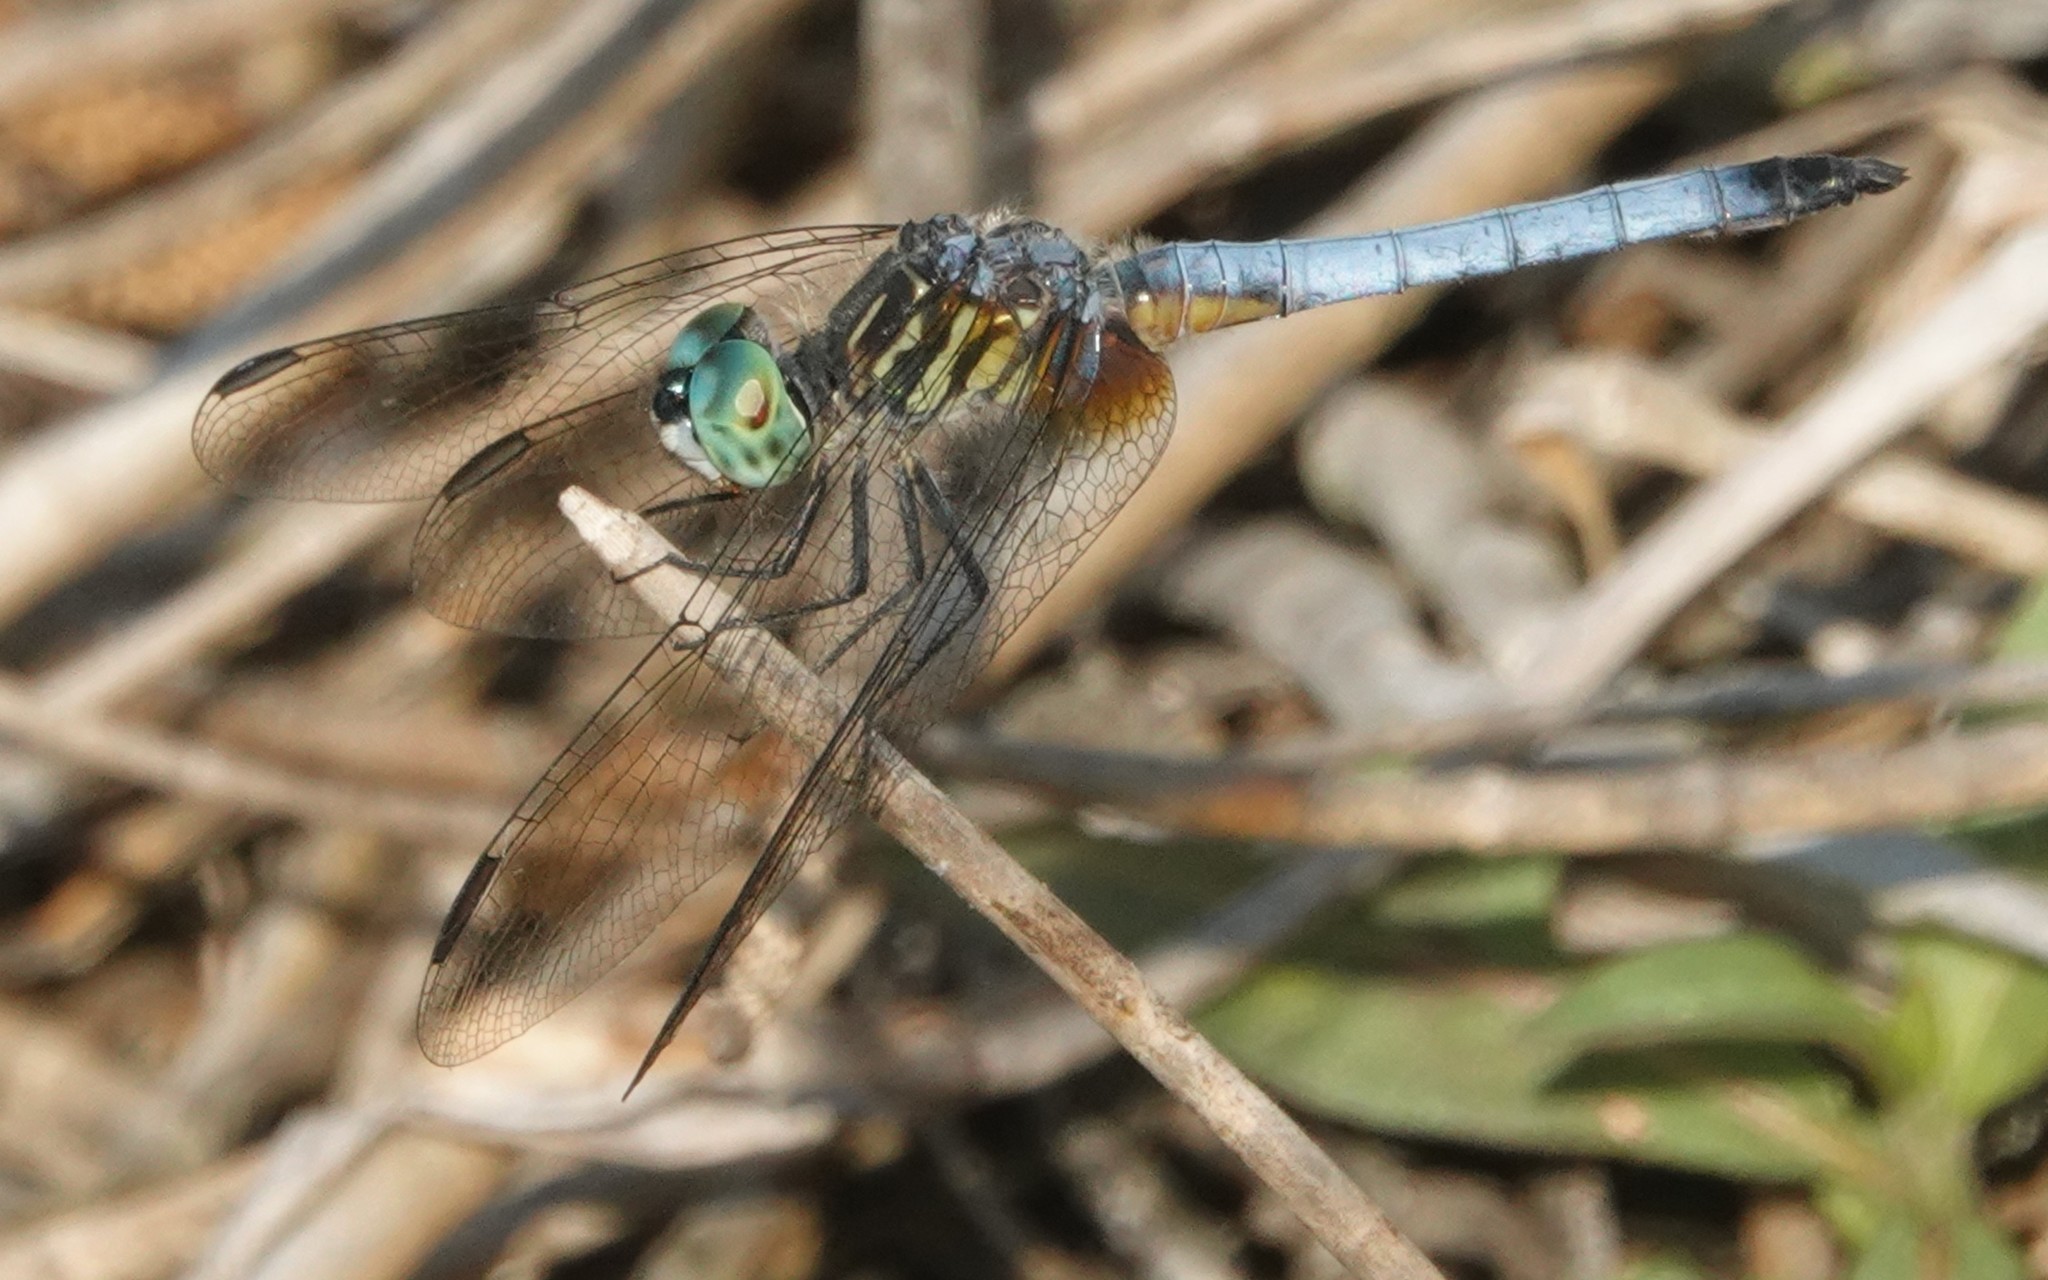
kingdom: Animalia
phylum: Arthropoda
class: Insecta
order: Odonata
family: Libellulidae
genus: Pachydiplax
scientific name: Pachydiplax longipennis
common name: Blue dasher
